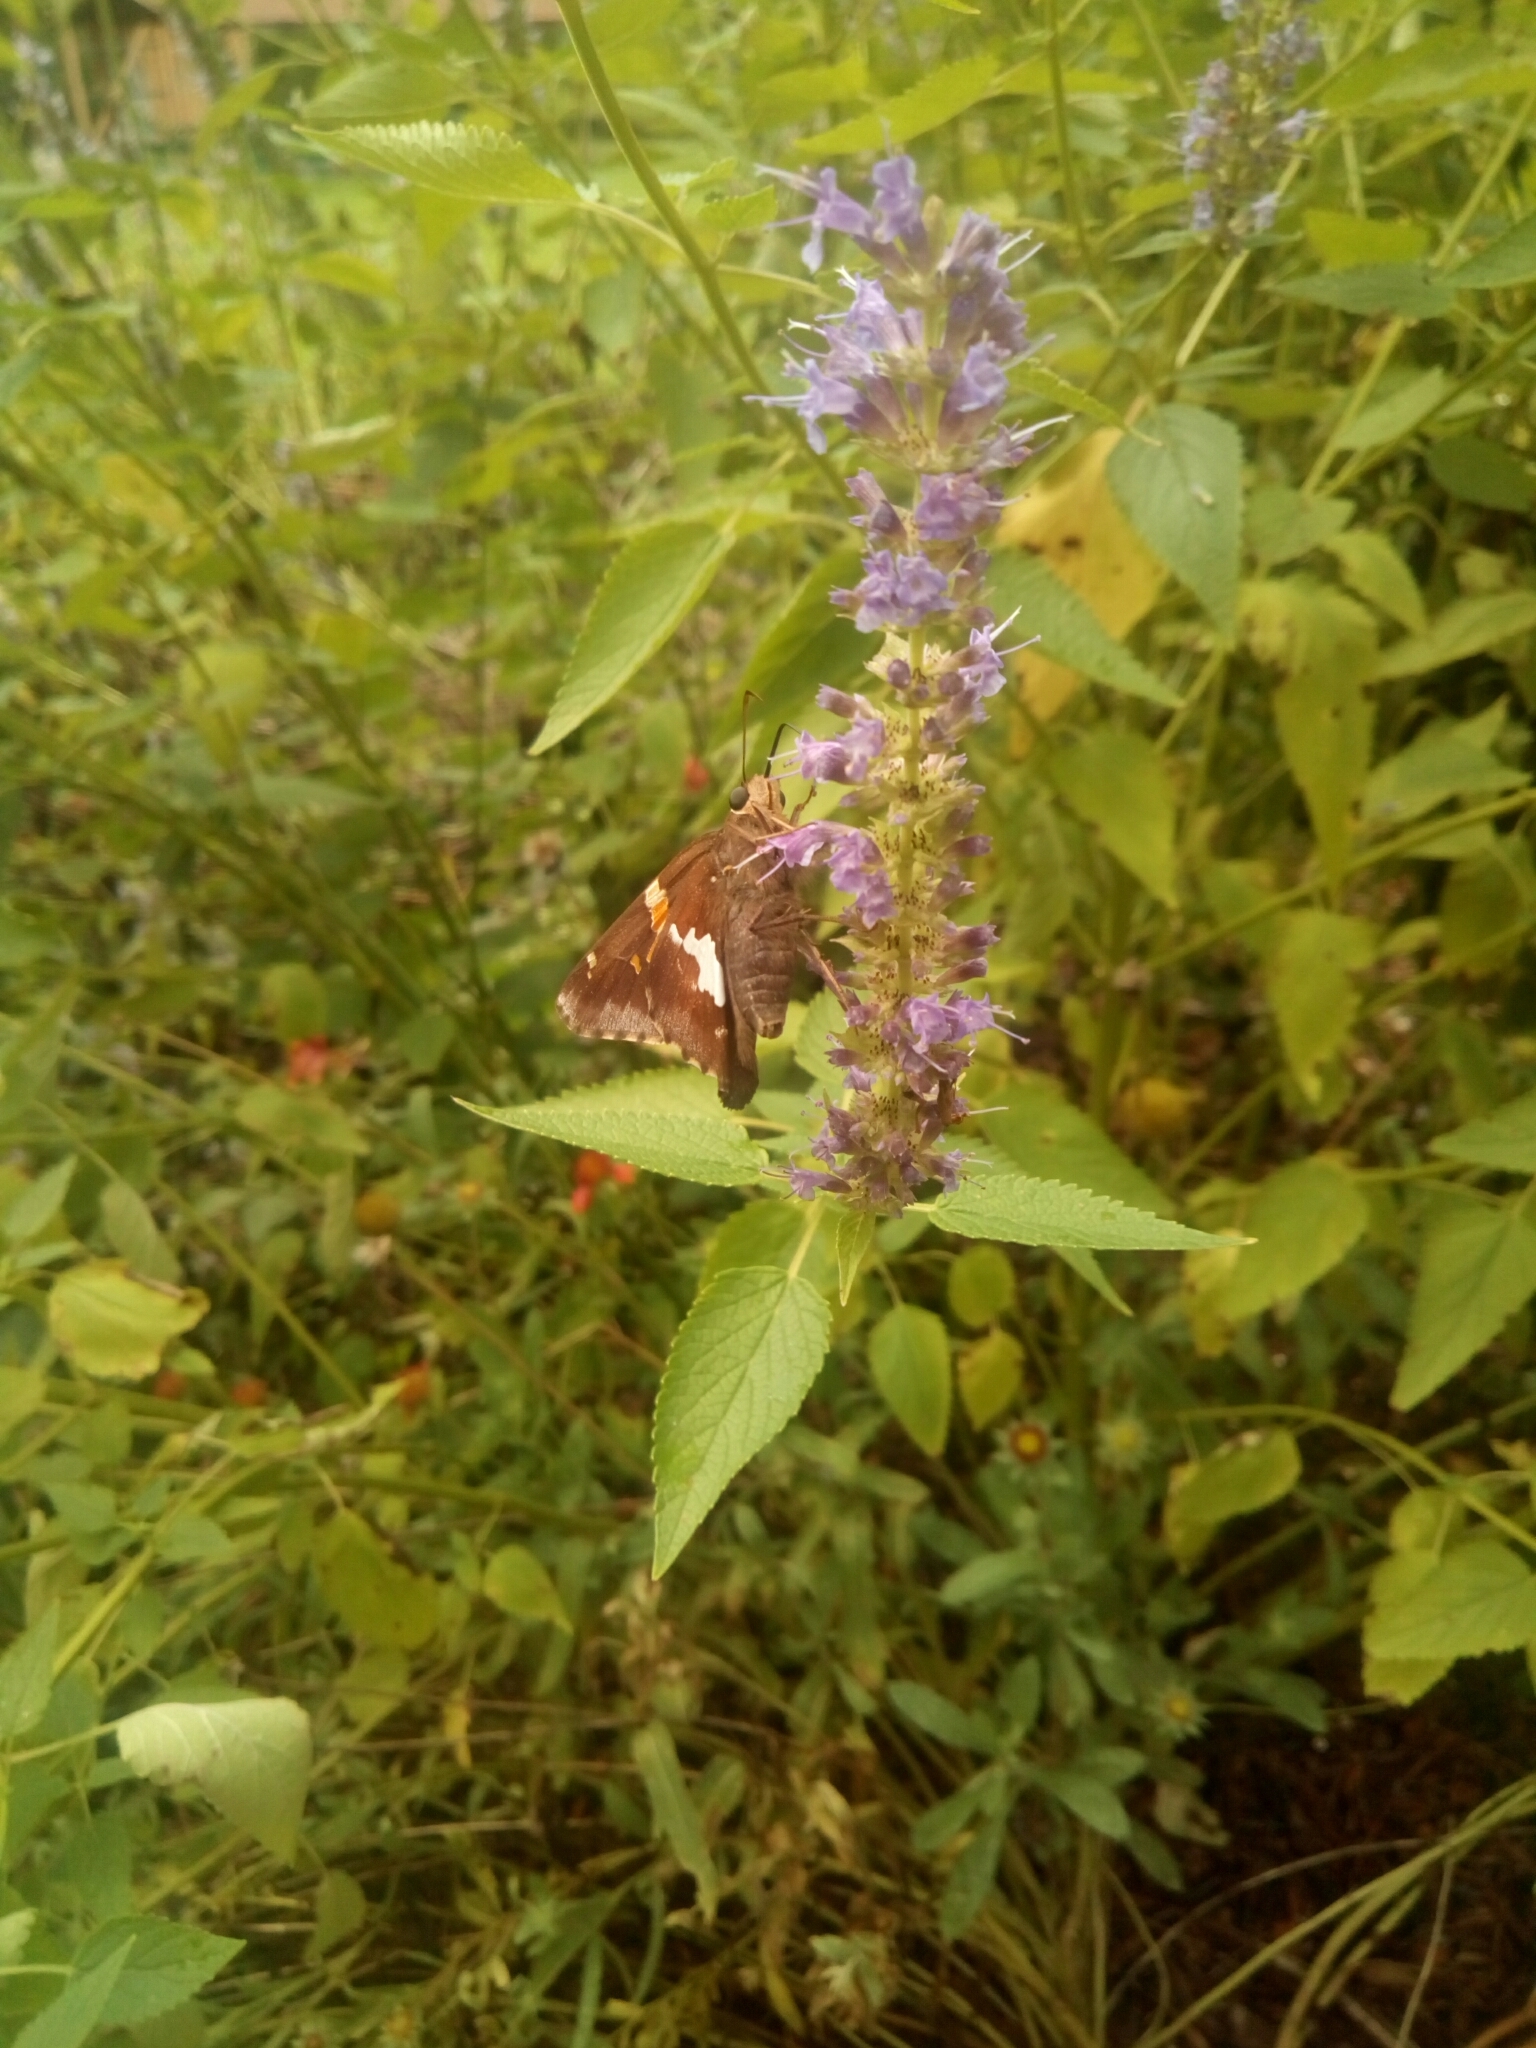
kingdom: Animalia
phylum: Arthropoda
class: Insecta
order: Lepidoptera
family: Hesperiidae
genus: Epargyreus
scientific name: Epargyreus clarus
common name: Silver-spotted skipper
